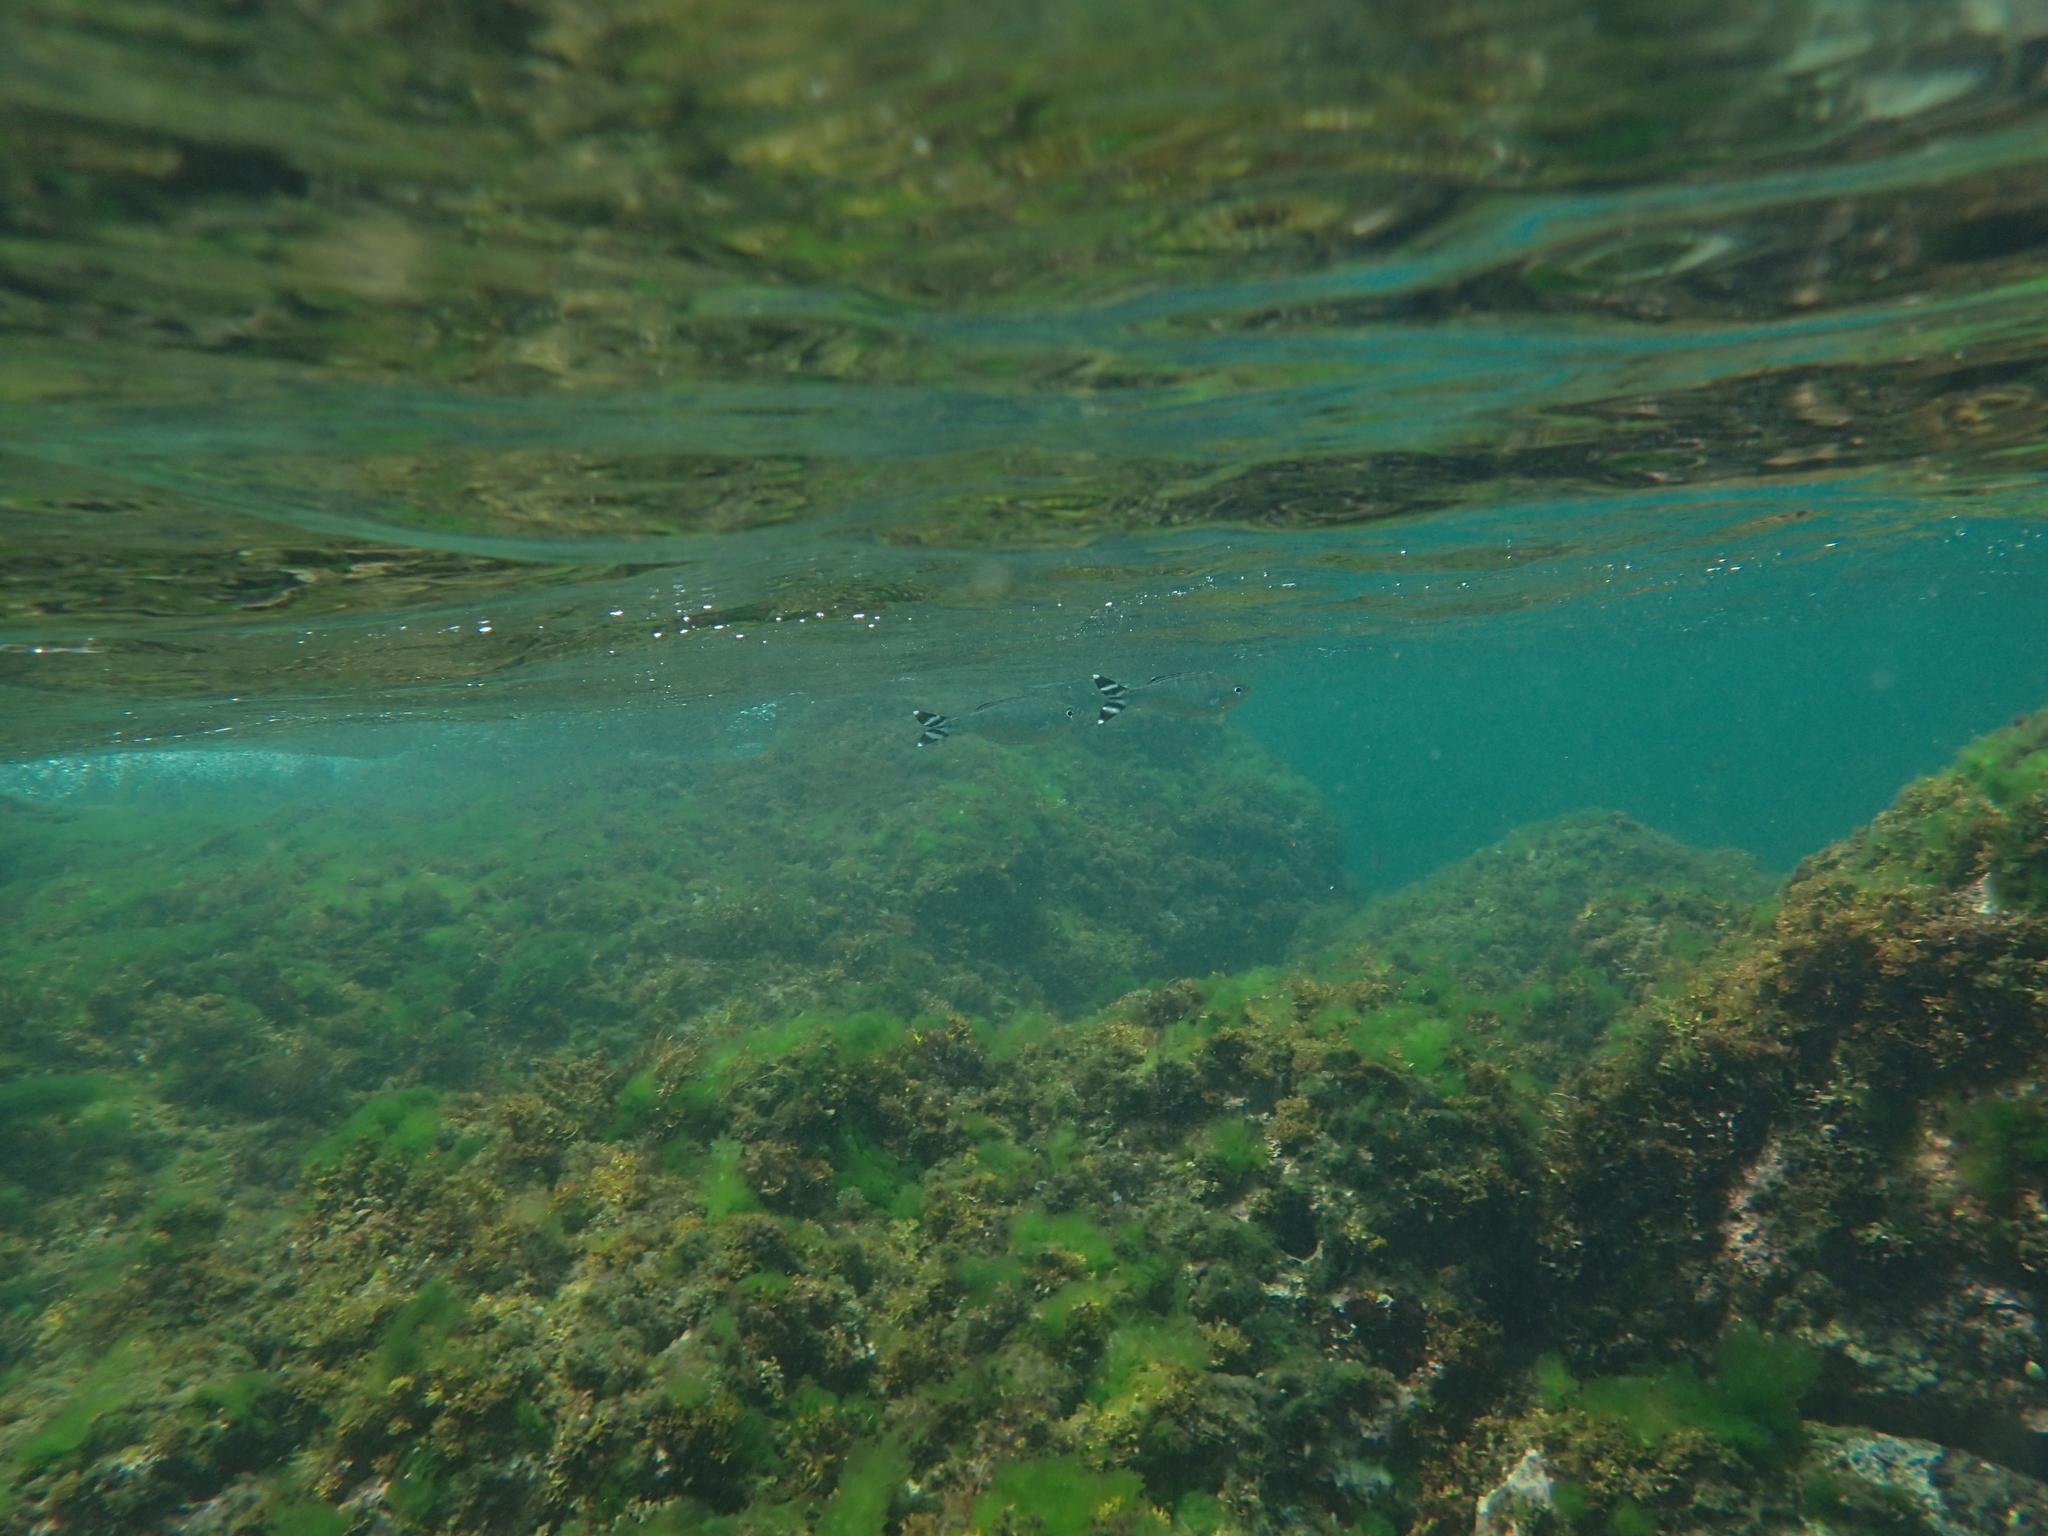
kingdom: Animalia
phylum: Chordata
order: Perciformes
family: Kuhliidae
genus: Kuhlia
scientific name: Kuhlia mugil
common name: Barred flagtail
